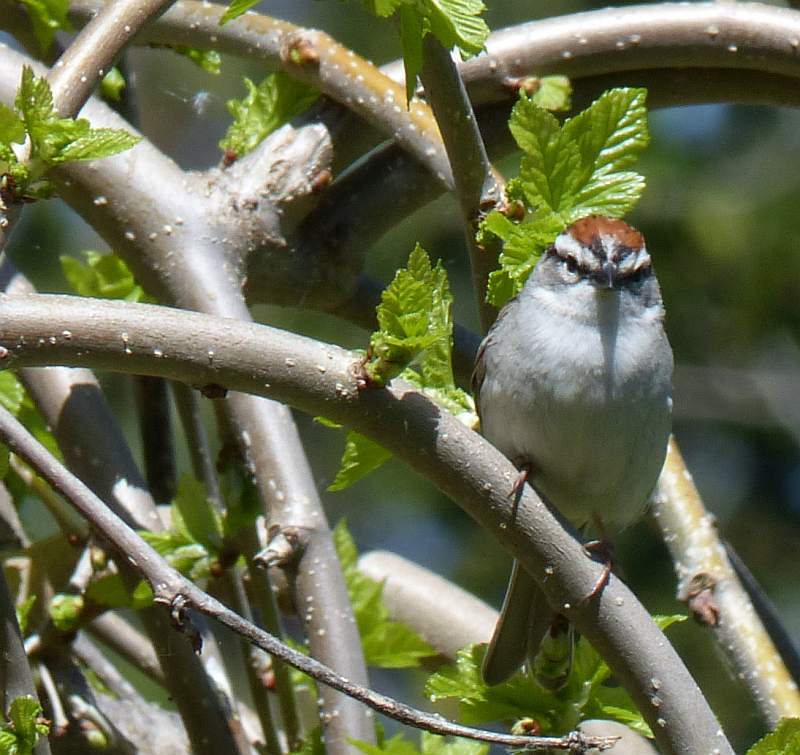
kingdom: Animalia
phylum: Chordata
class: Aves
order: Passeriformes
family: Passerellidae
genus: Spizella
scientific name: Spizella passerina
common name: Chipping sparrow
